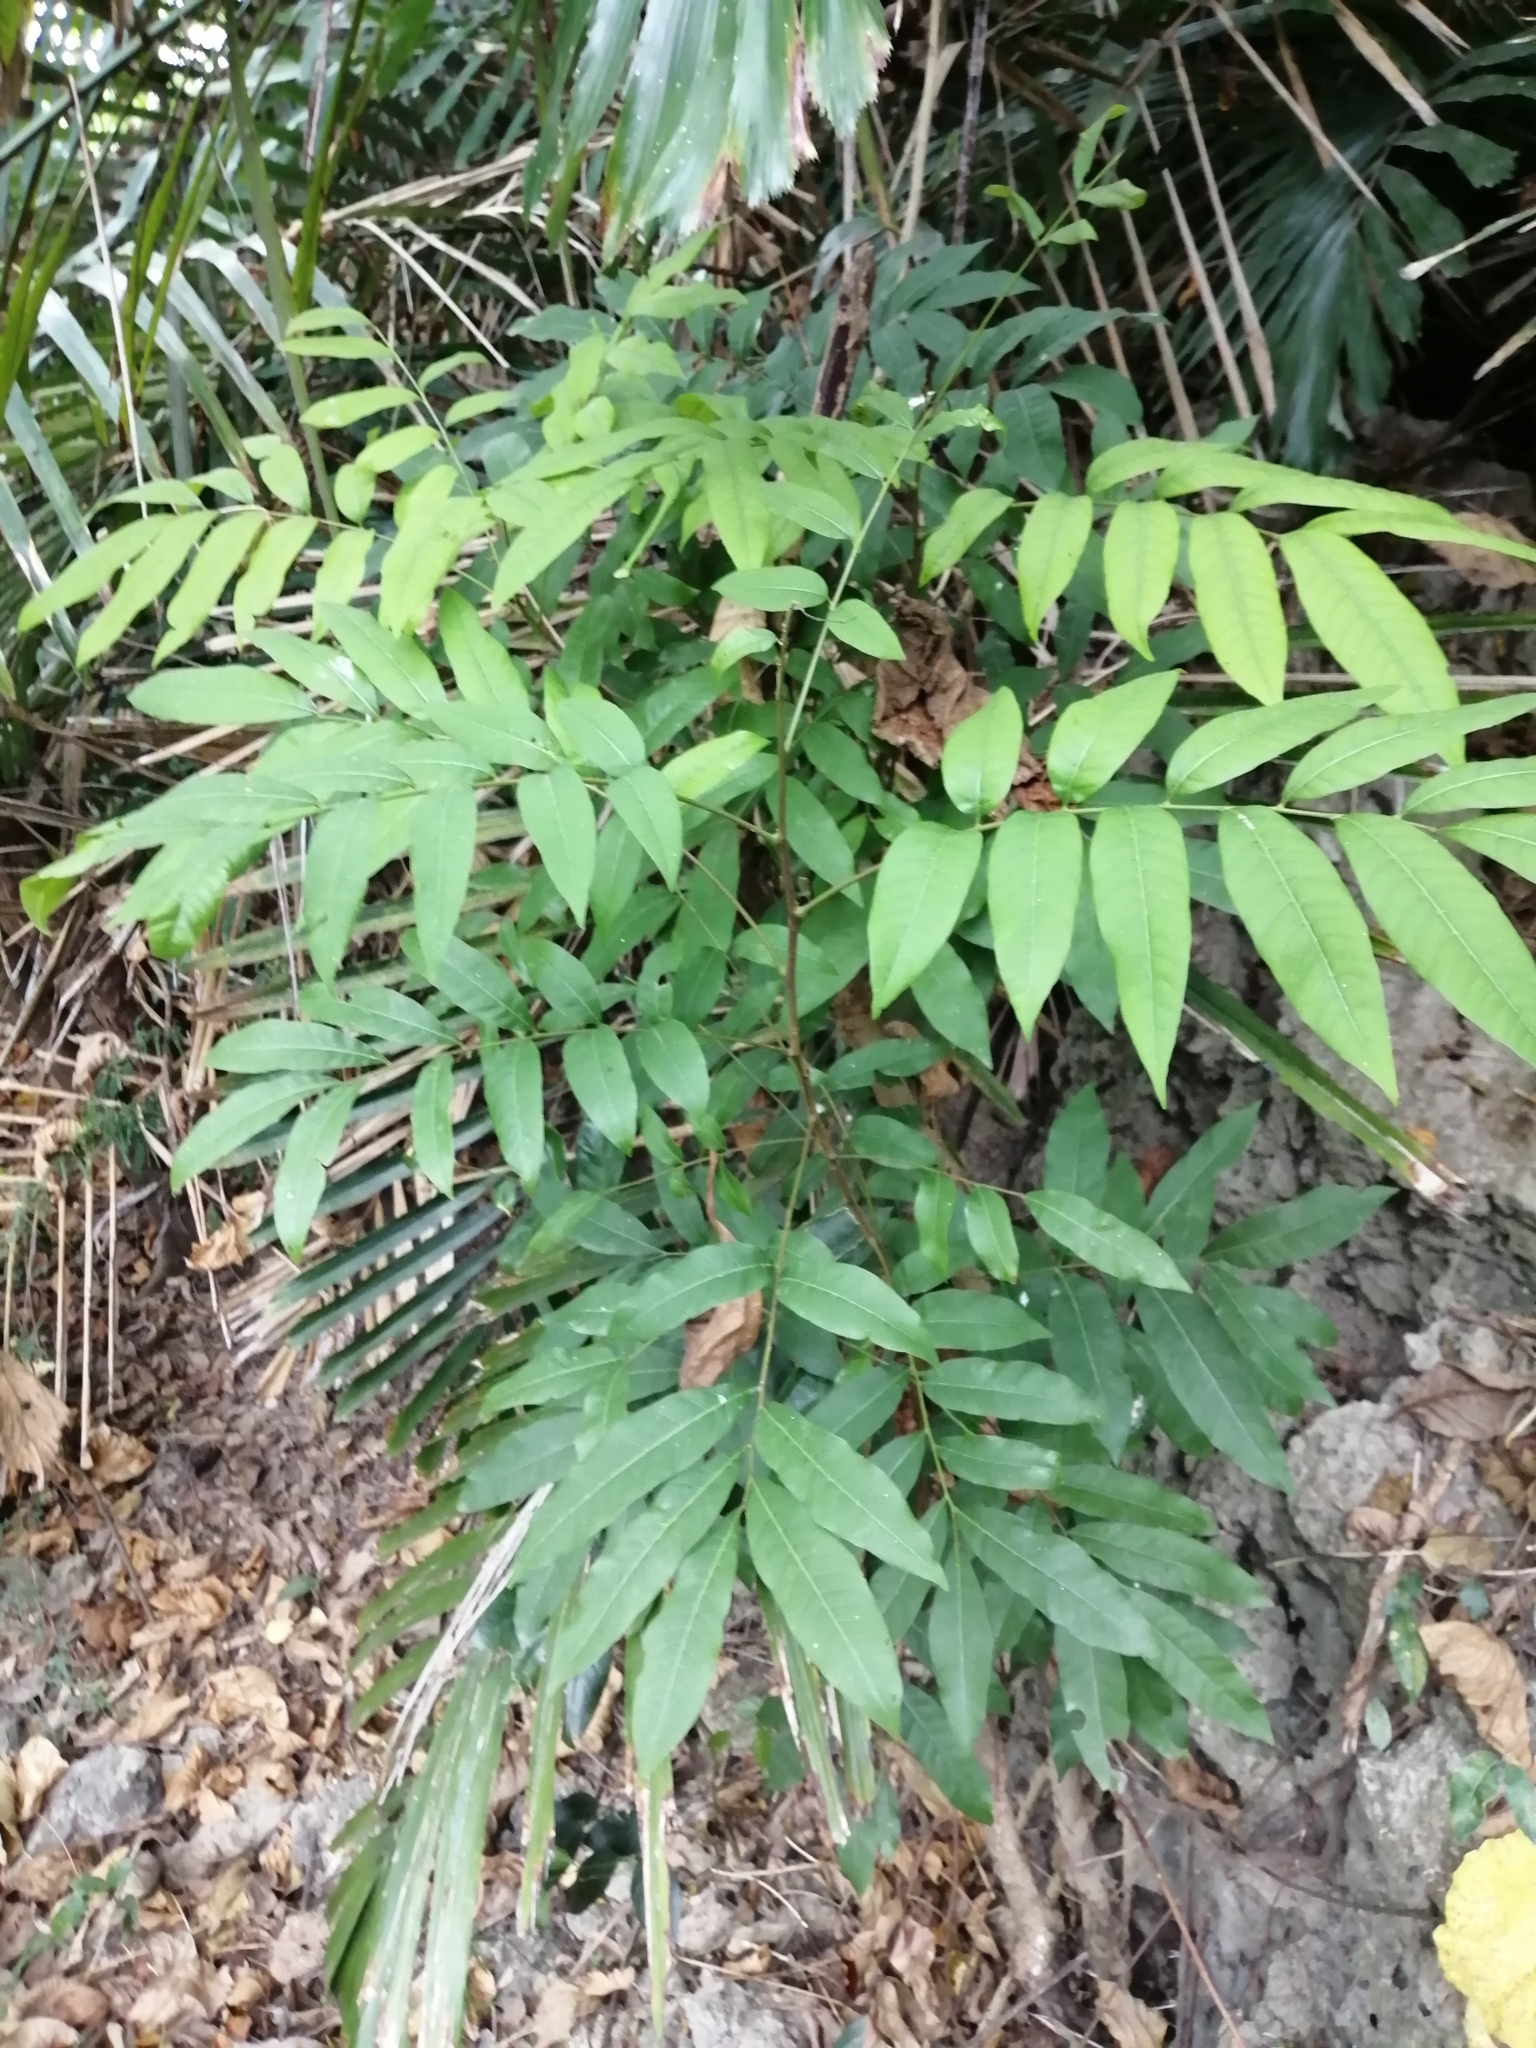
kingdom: Plantae
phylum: Tracheophyta
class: Magnoliopsida
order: Sapindales
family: Sapindaceae
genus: Dimocarpus
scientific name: Dimocarpus longan
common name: Longan
